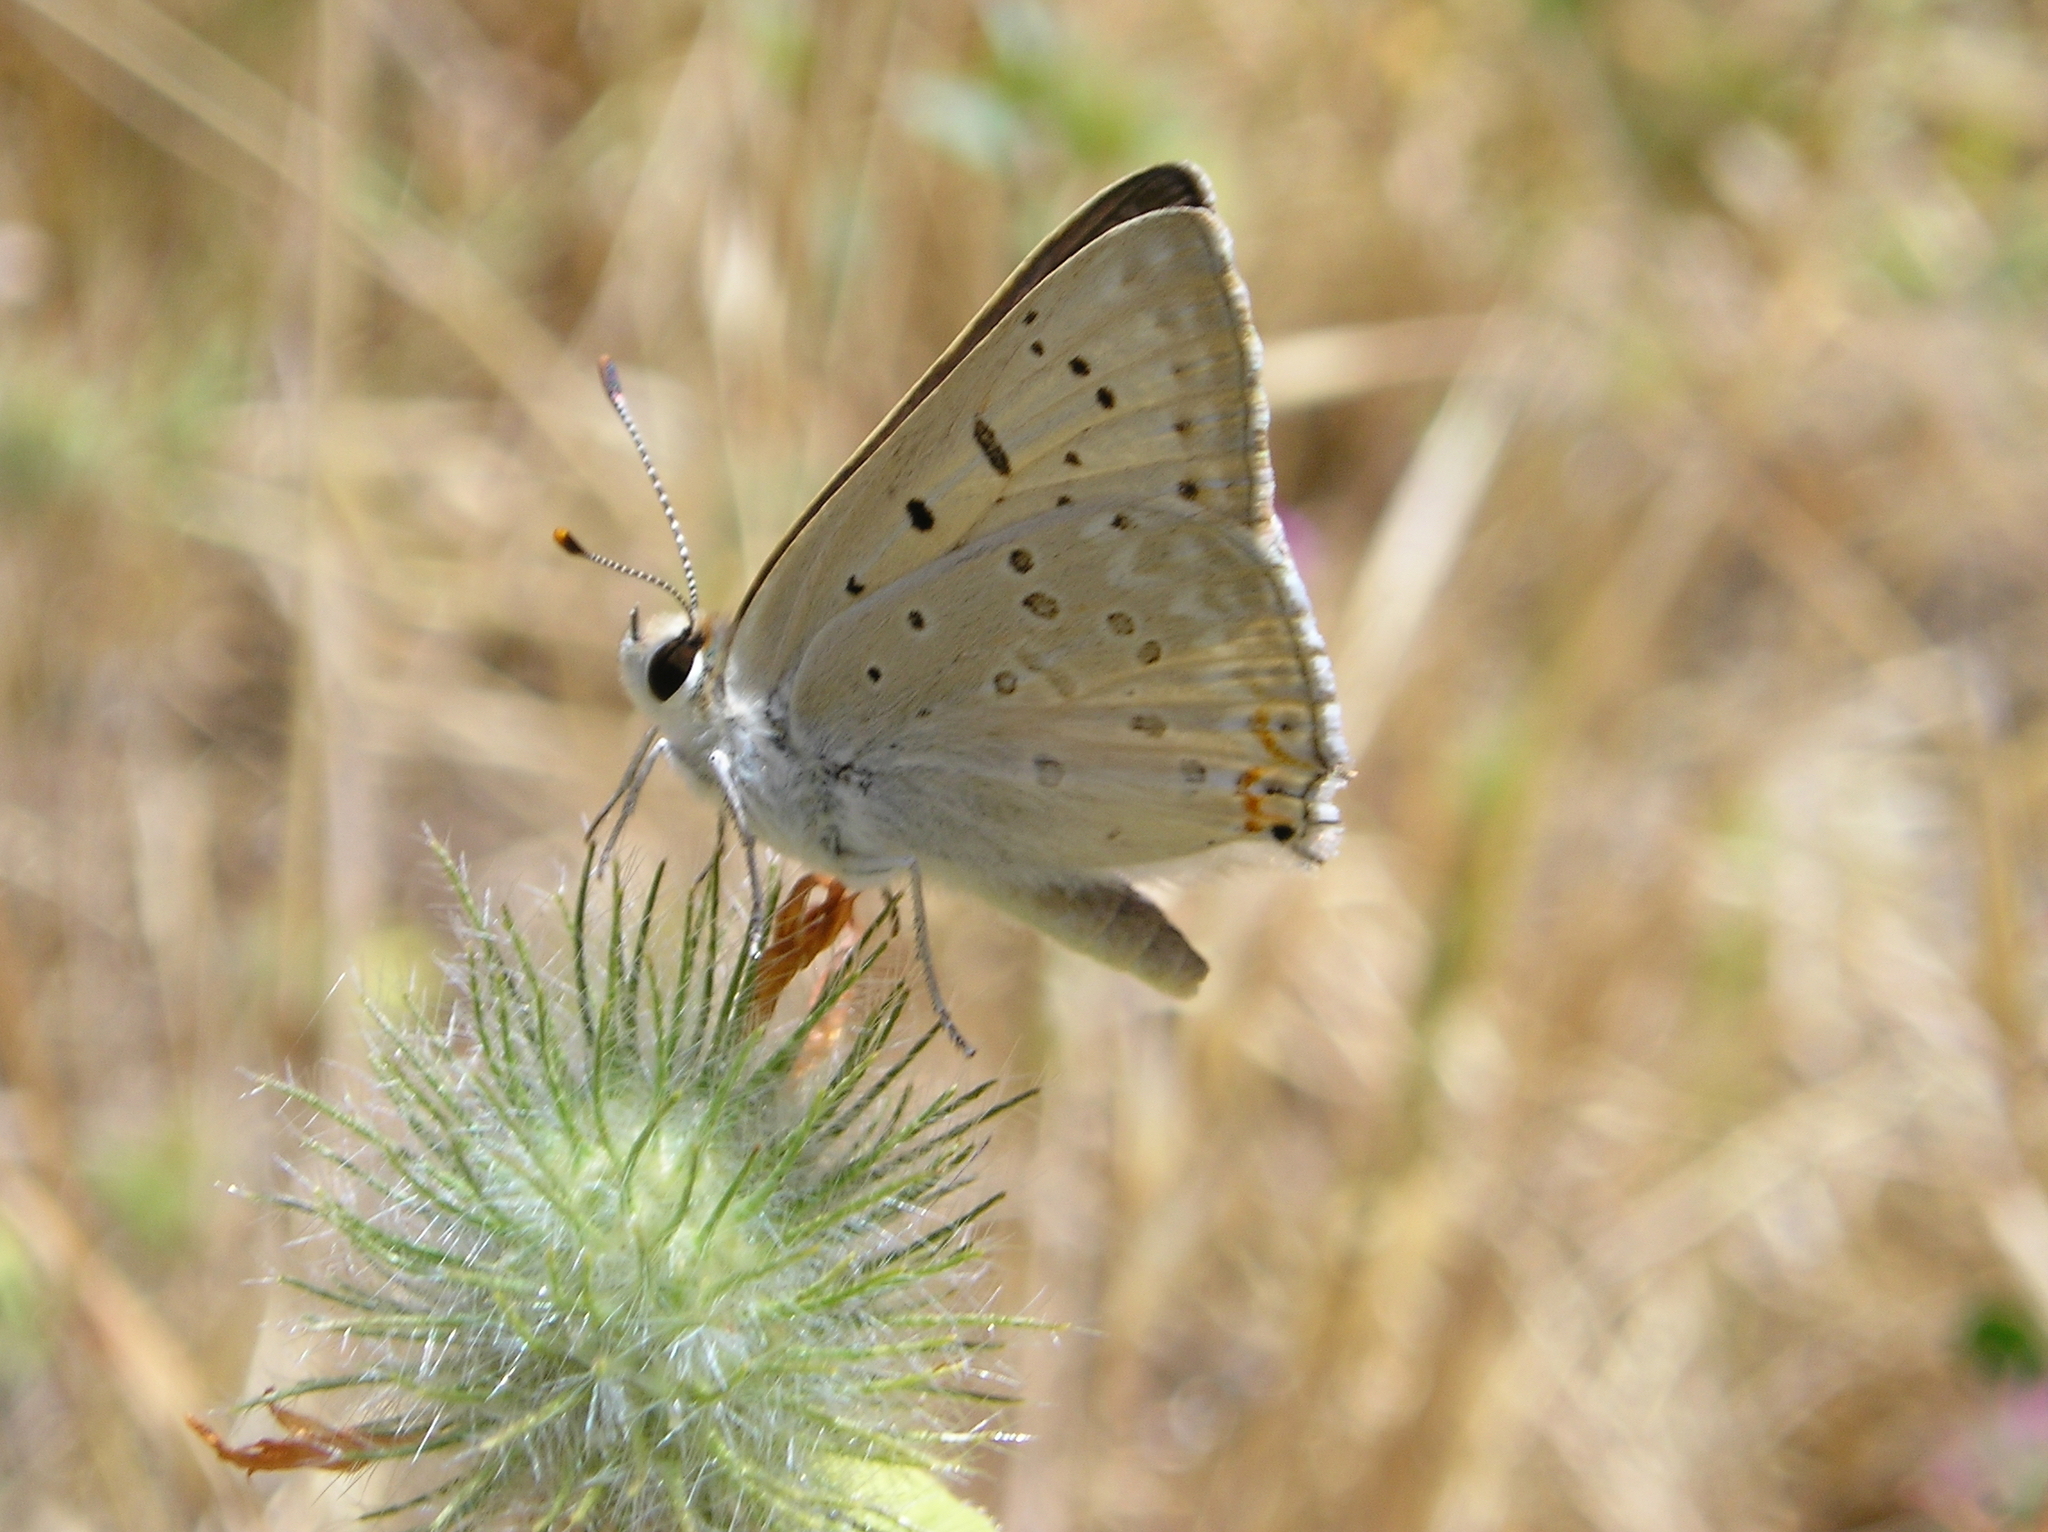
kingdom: Animalia
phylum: Arthropoda
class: Insecta
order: Lepidoptera
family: Lycaenidae
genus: Tharsalea
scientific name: Tharsalea xanthoides
